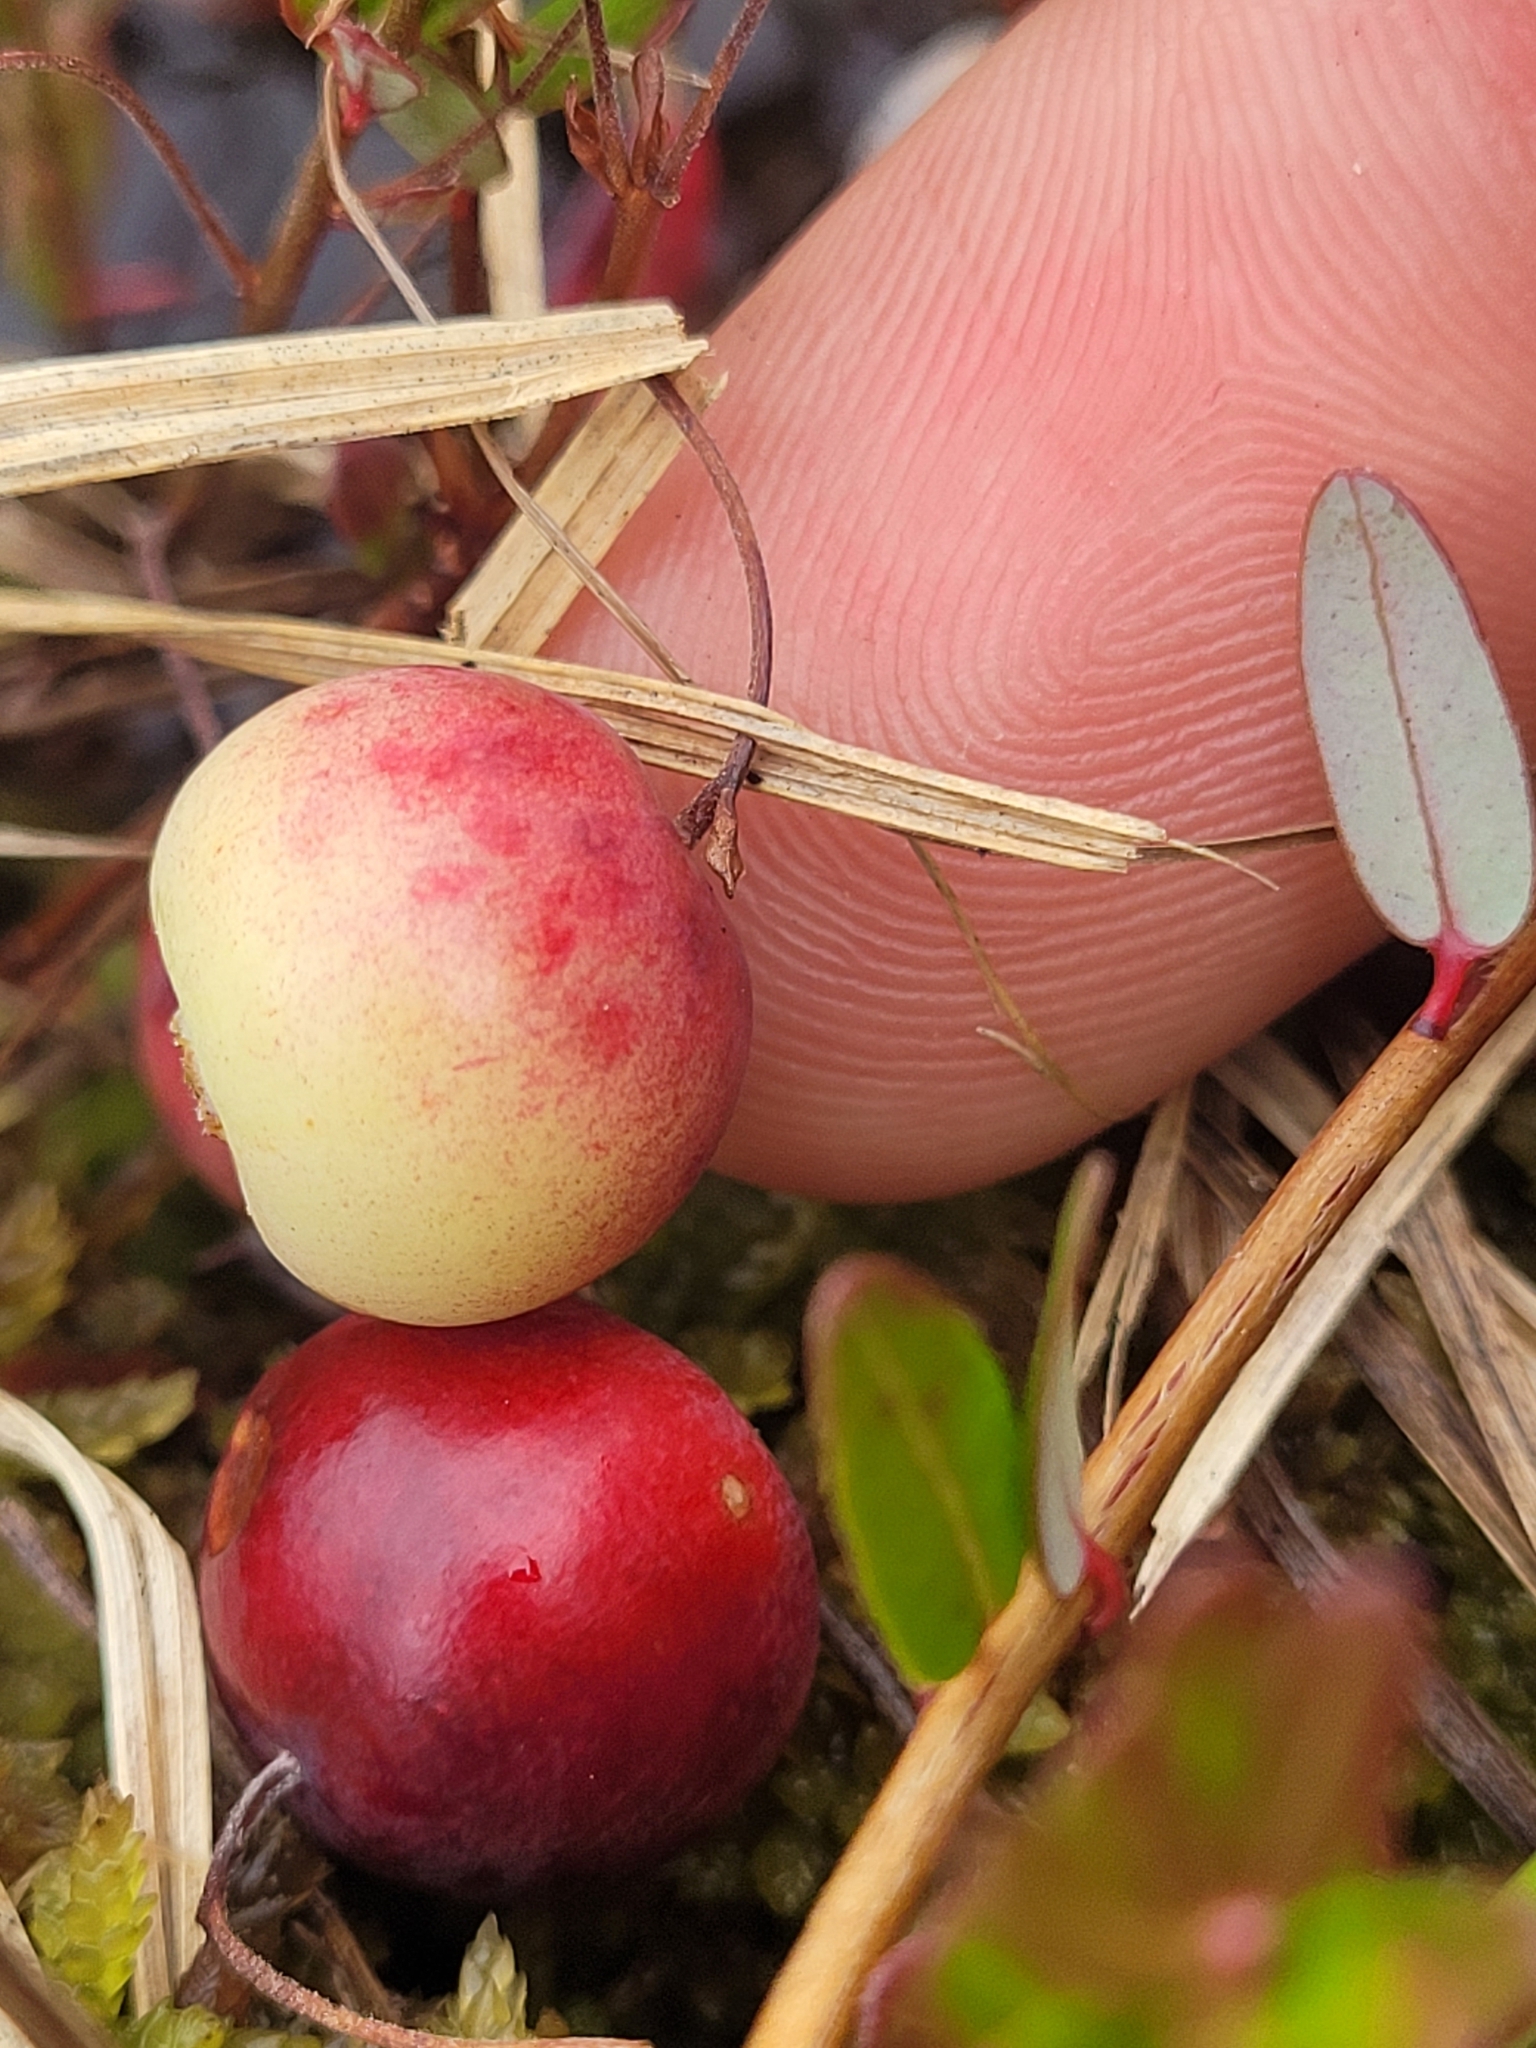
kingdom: Plantae
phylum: Tracheophyta
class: Magnoliopsida
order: Ericales
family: Ericaceae
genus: Vaccinium
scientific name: Vaccinium macrocarpon
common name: American cranberry
